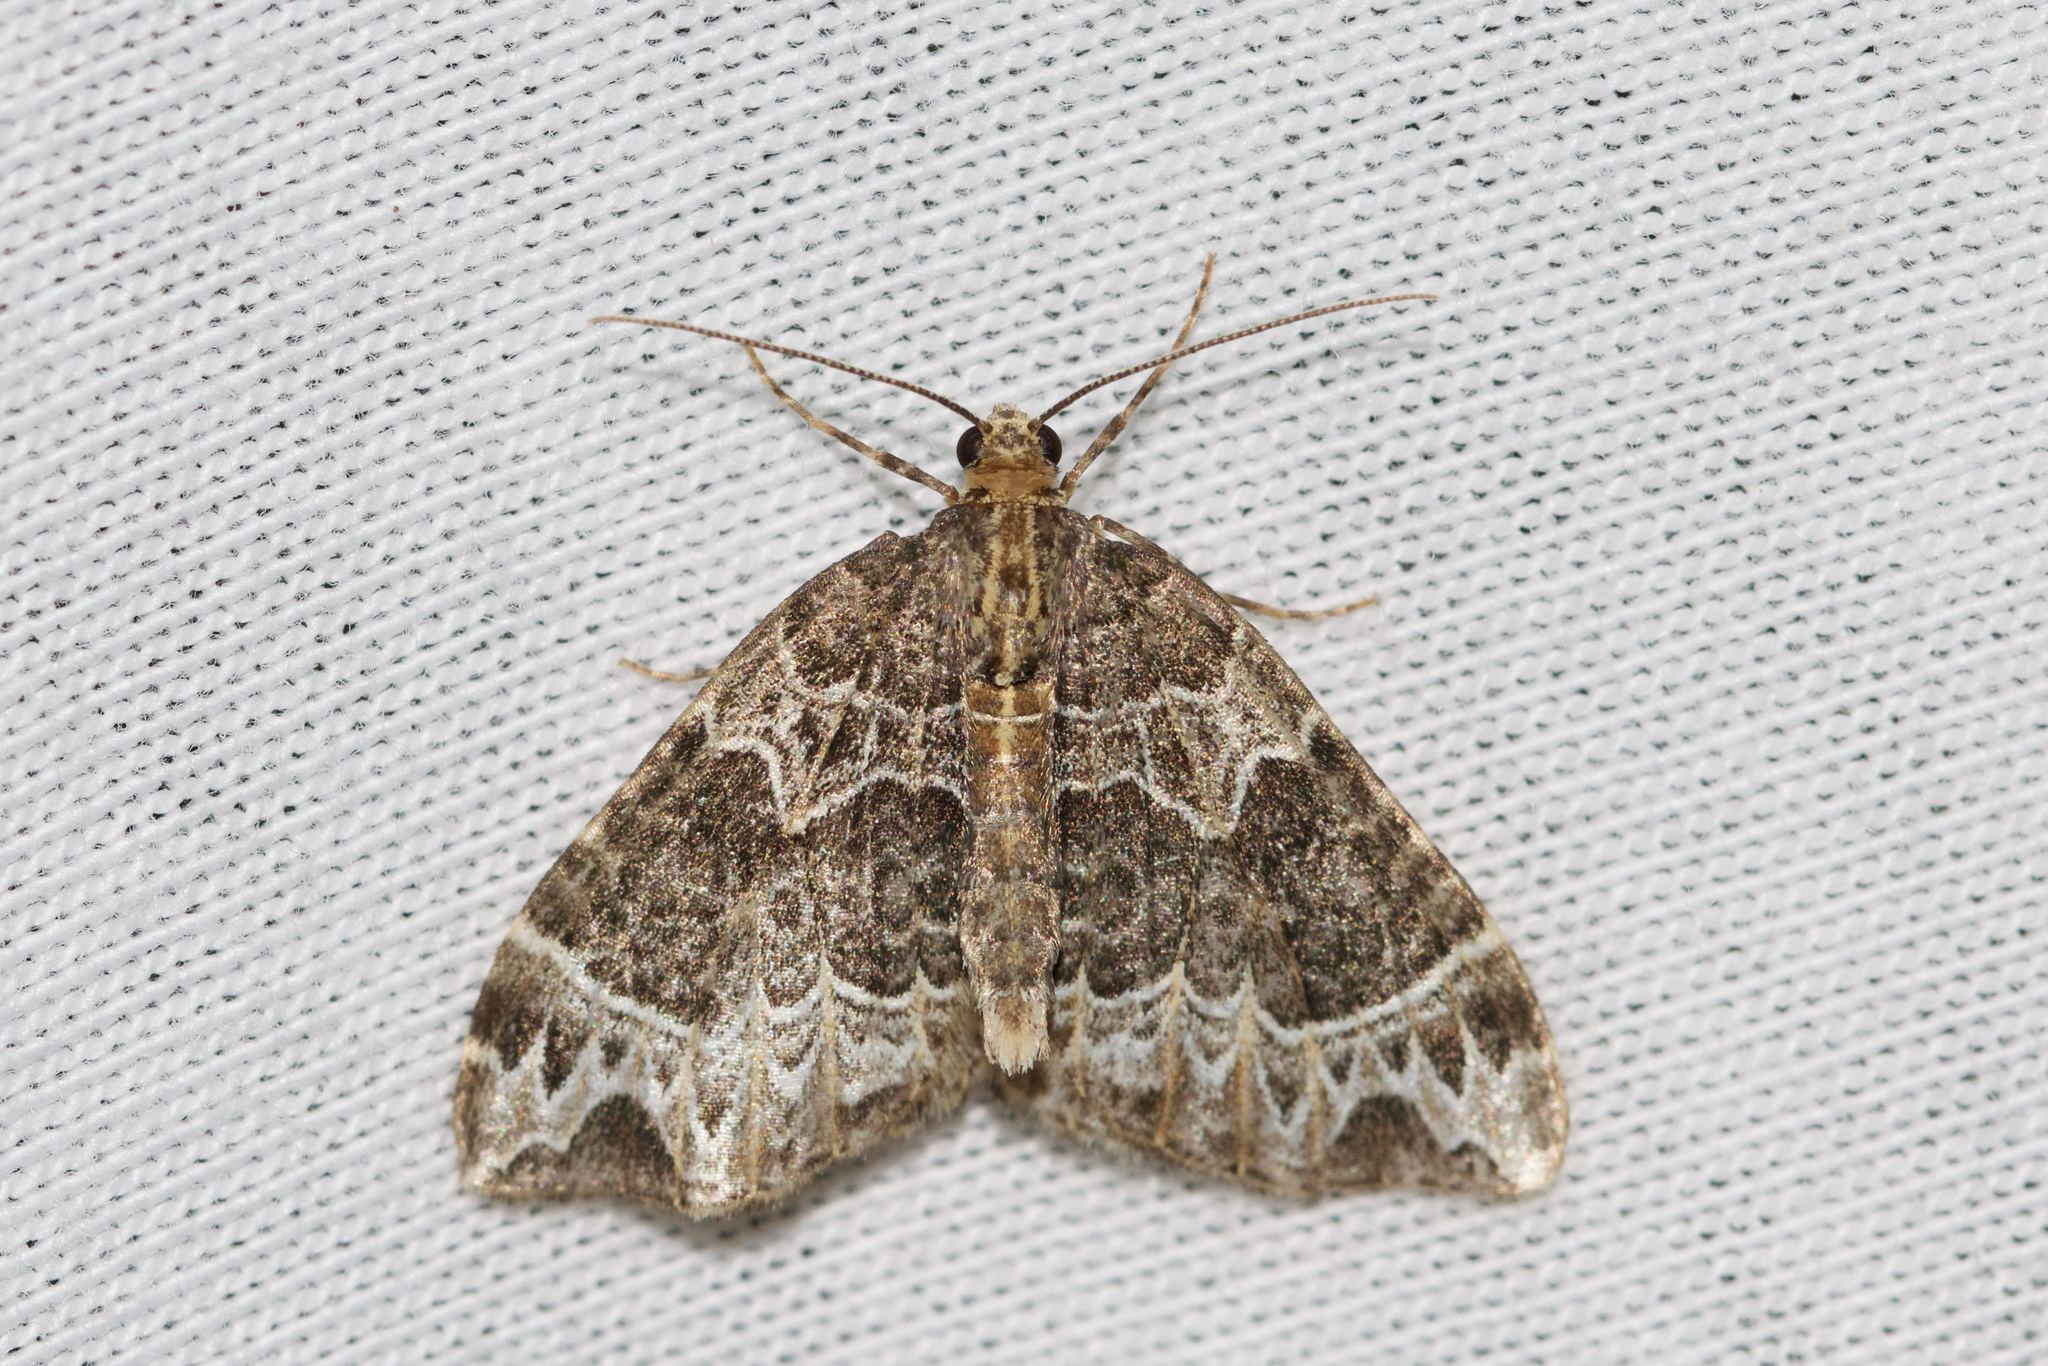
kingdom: Animalia
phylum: Arthropoda
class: Insecta
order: Lepidoptera
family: Geometridae
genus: Ecliptopera
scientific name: Ecliptopera silaceata
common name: Small phoenix
